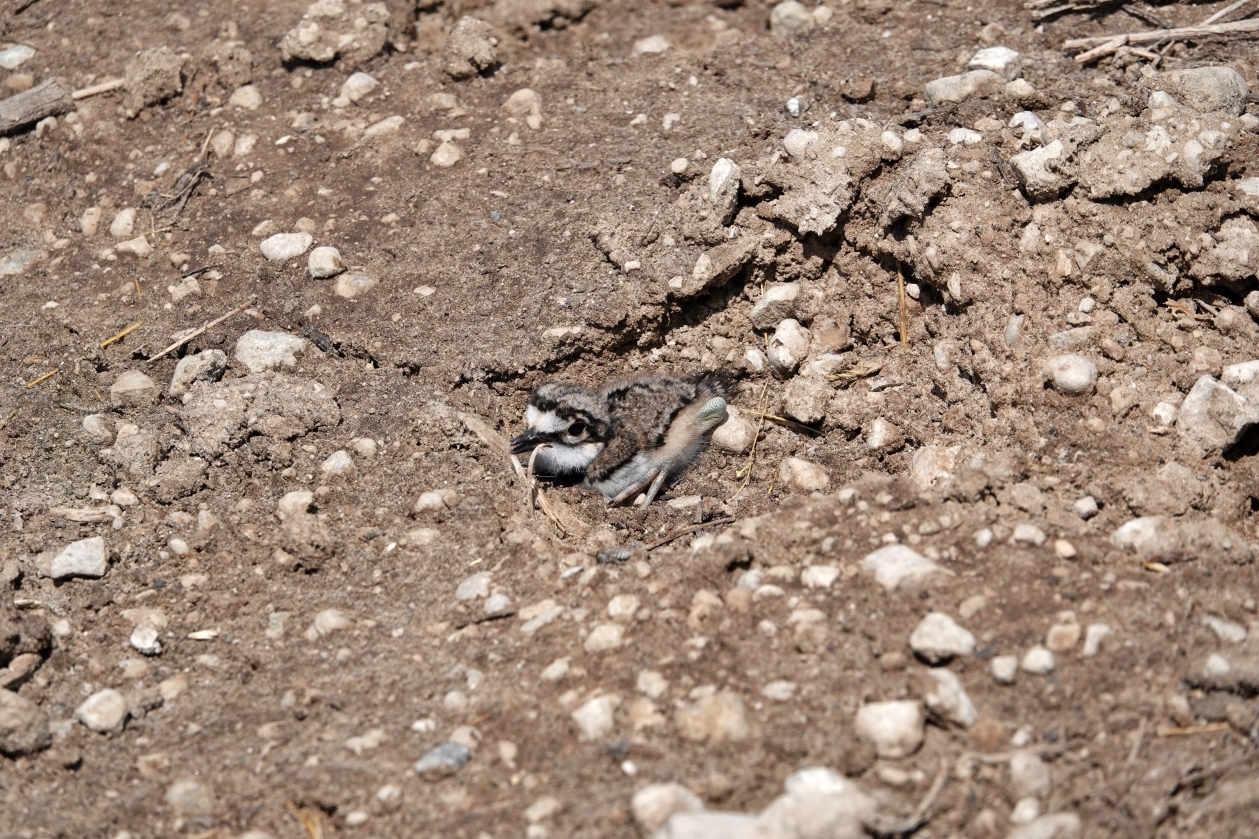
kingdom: Animalia
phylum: Chordata
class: Aves
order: Charadriiformes
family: Charadriidae
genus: Charadrius
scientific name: Charadrius vociferus
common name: Killdeer
